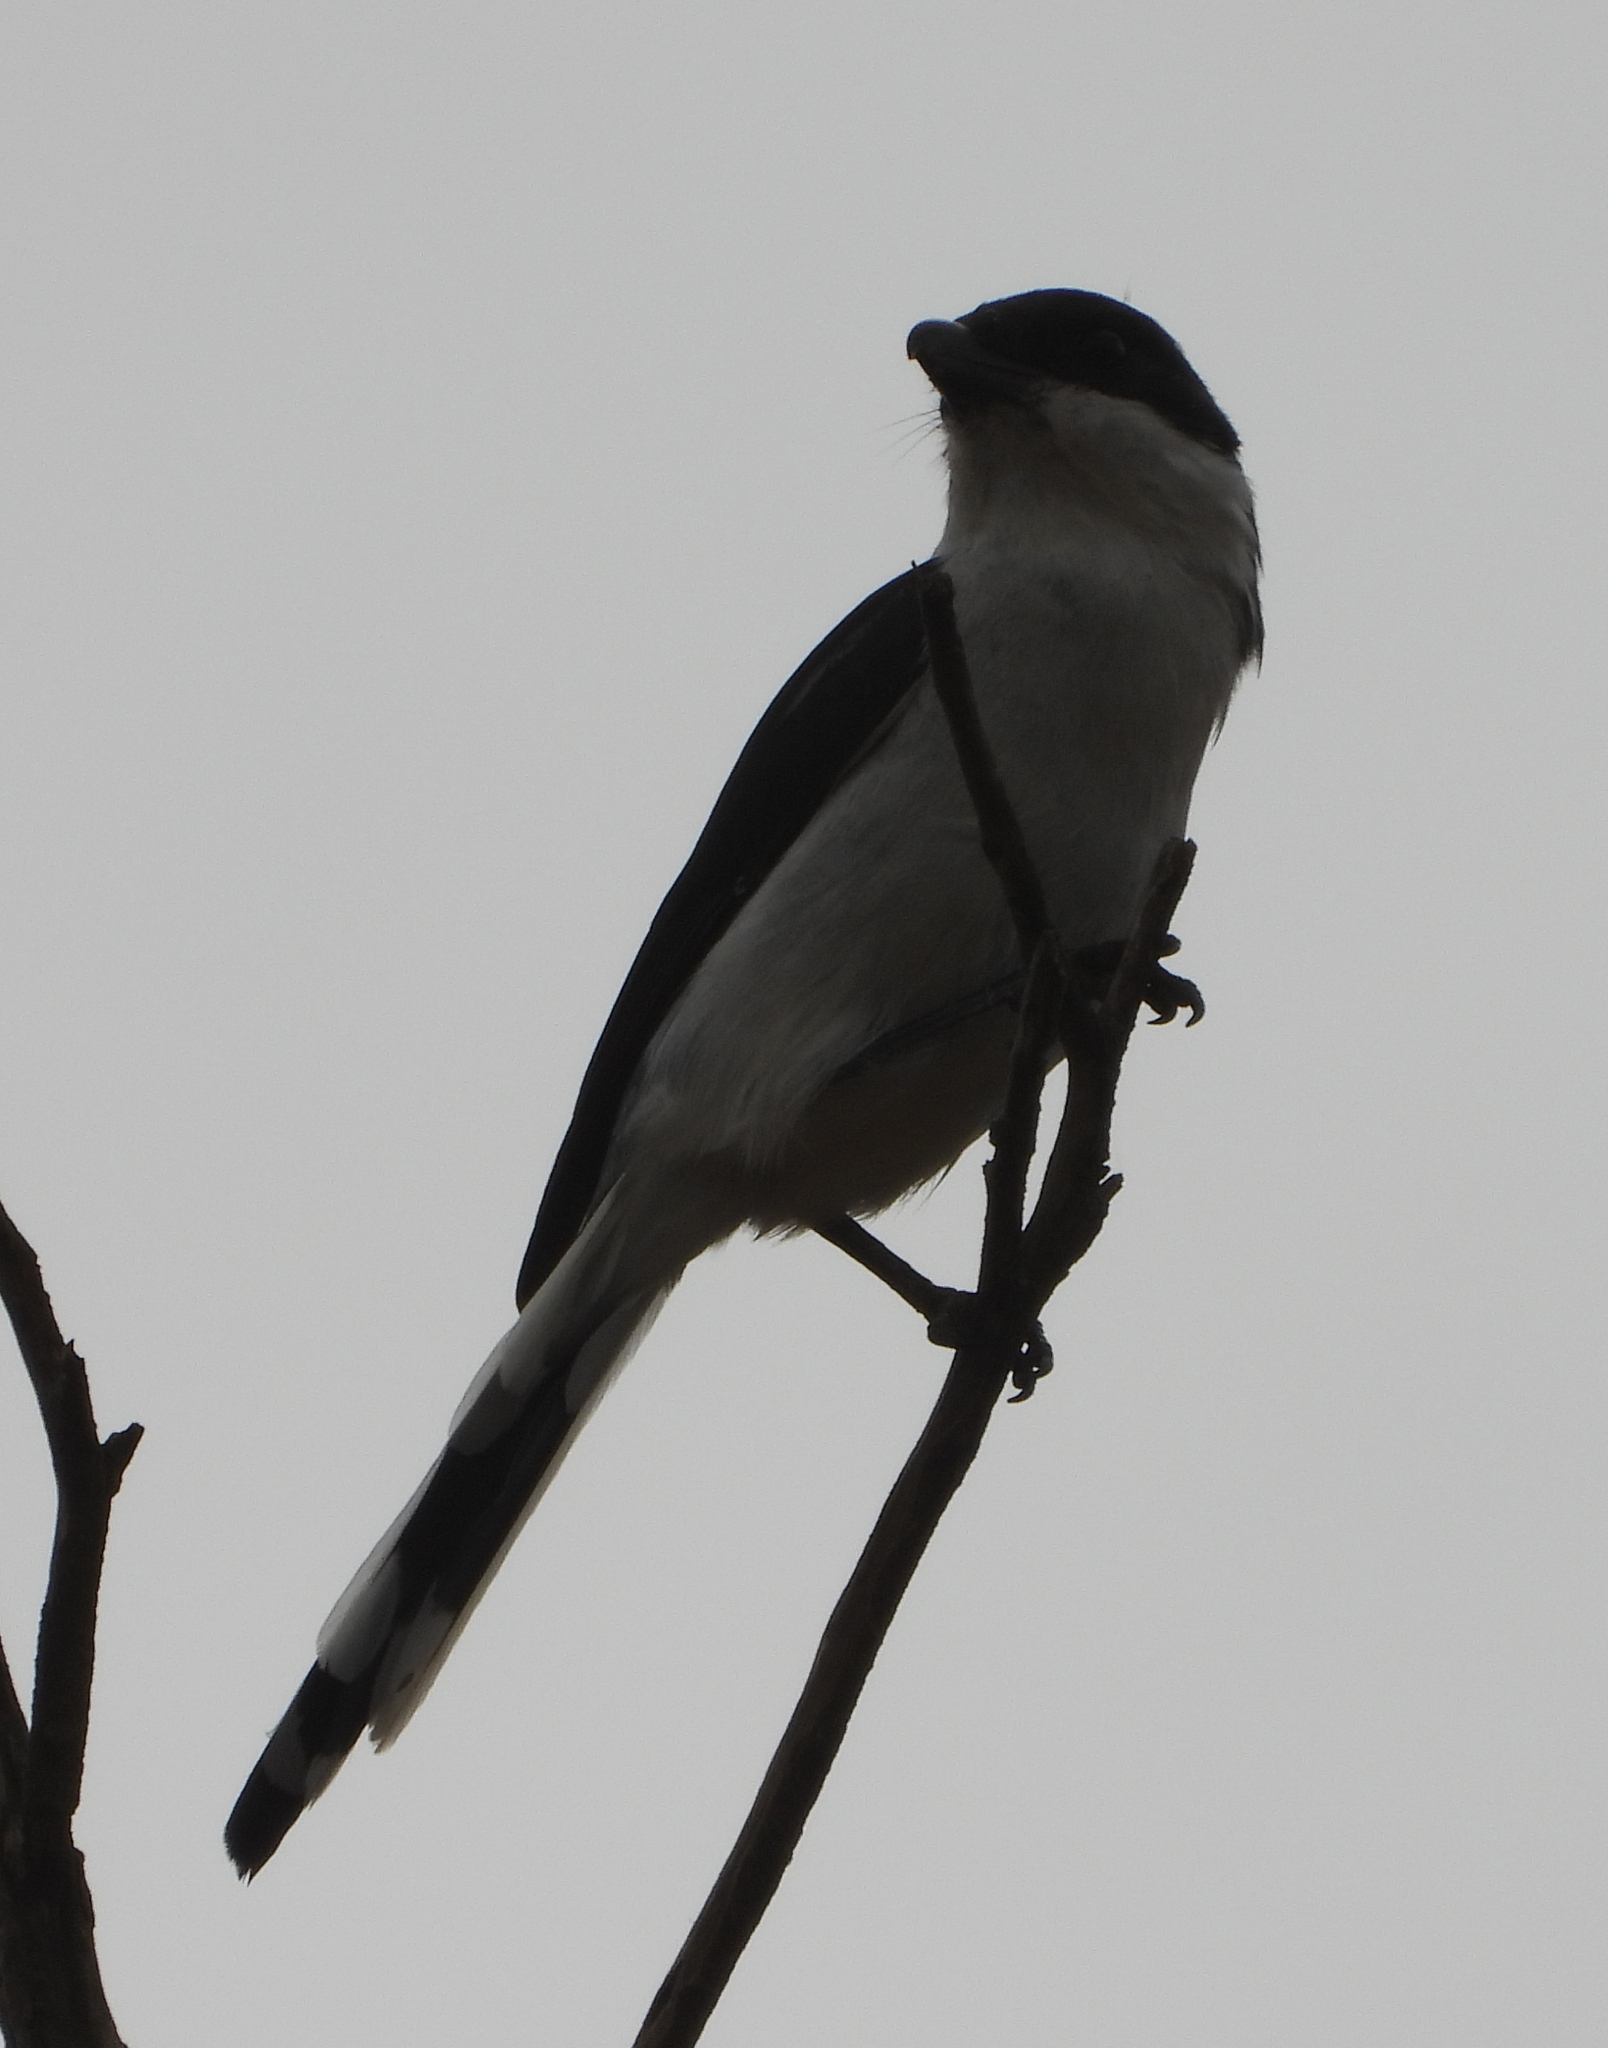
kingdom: Animalia
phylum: Chordata
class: Aves
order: Passeriformes
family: Laniidae
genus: Lanius
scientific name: Lanius collaris
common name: Southern fiscal
